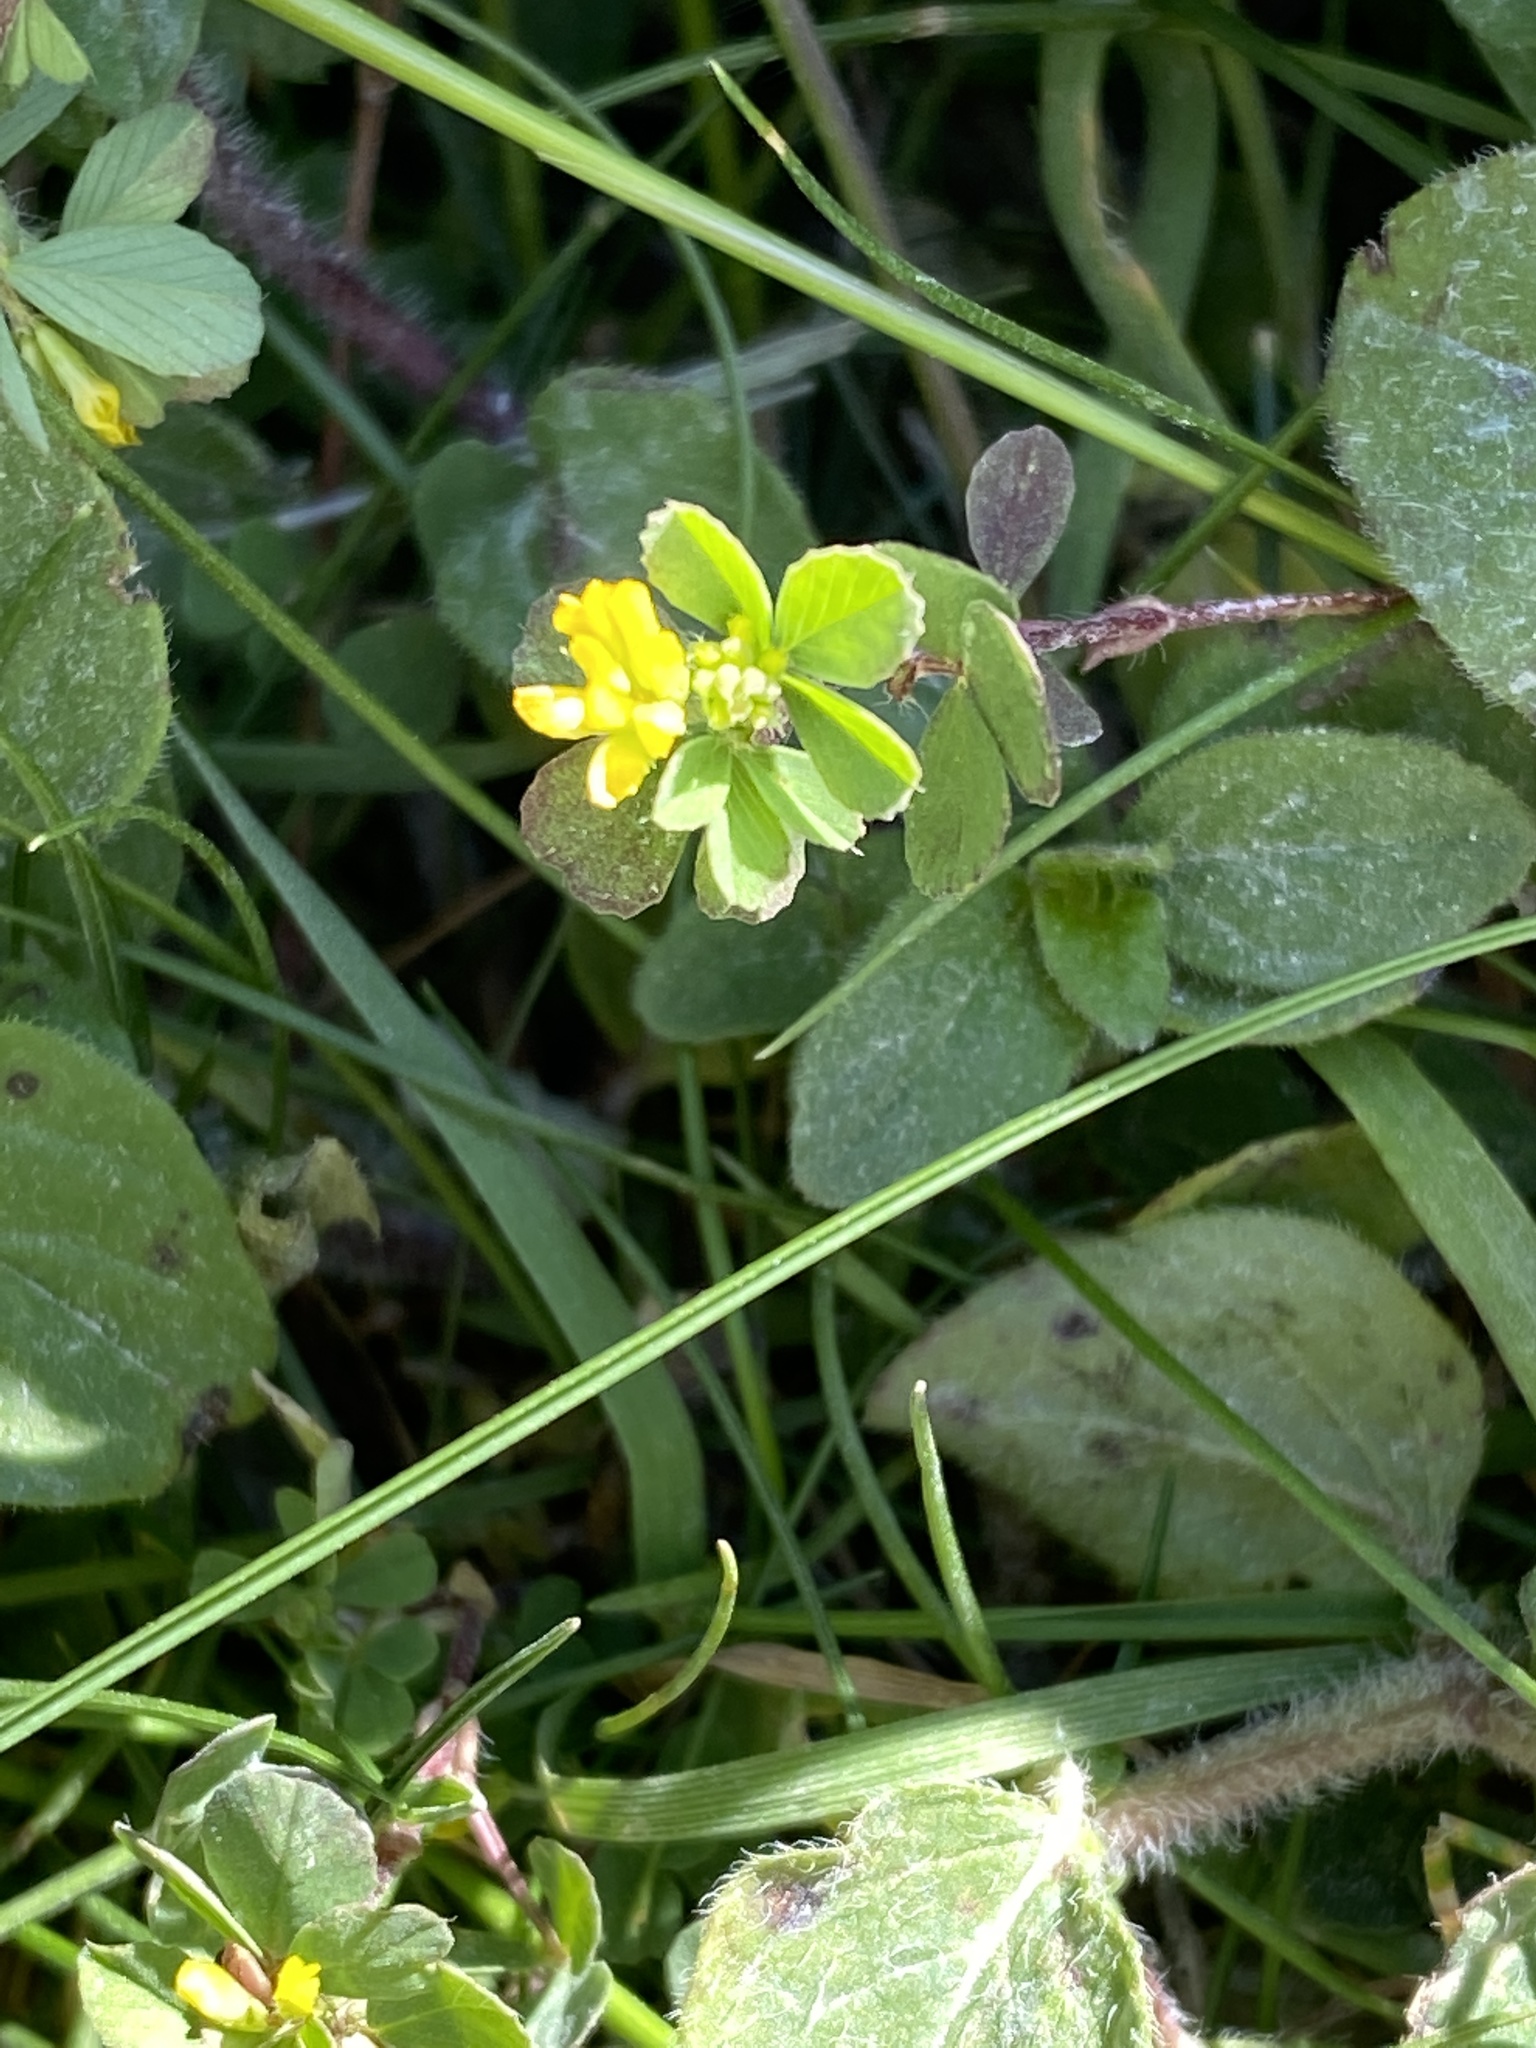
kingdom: Plantae
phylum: Tracheophyta
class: Magnoliopsida
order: Fabales
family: Fabaceae
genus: Trifolium
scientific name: Trifolium dubium
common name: Suckling clover
